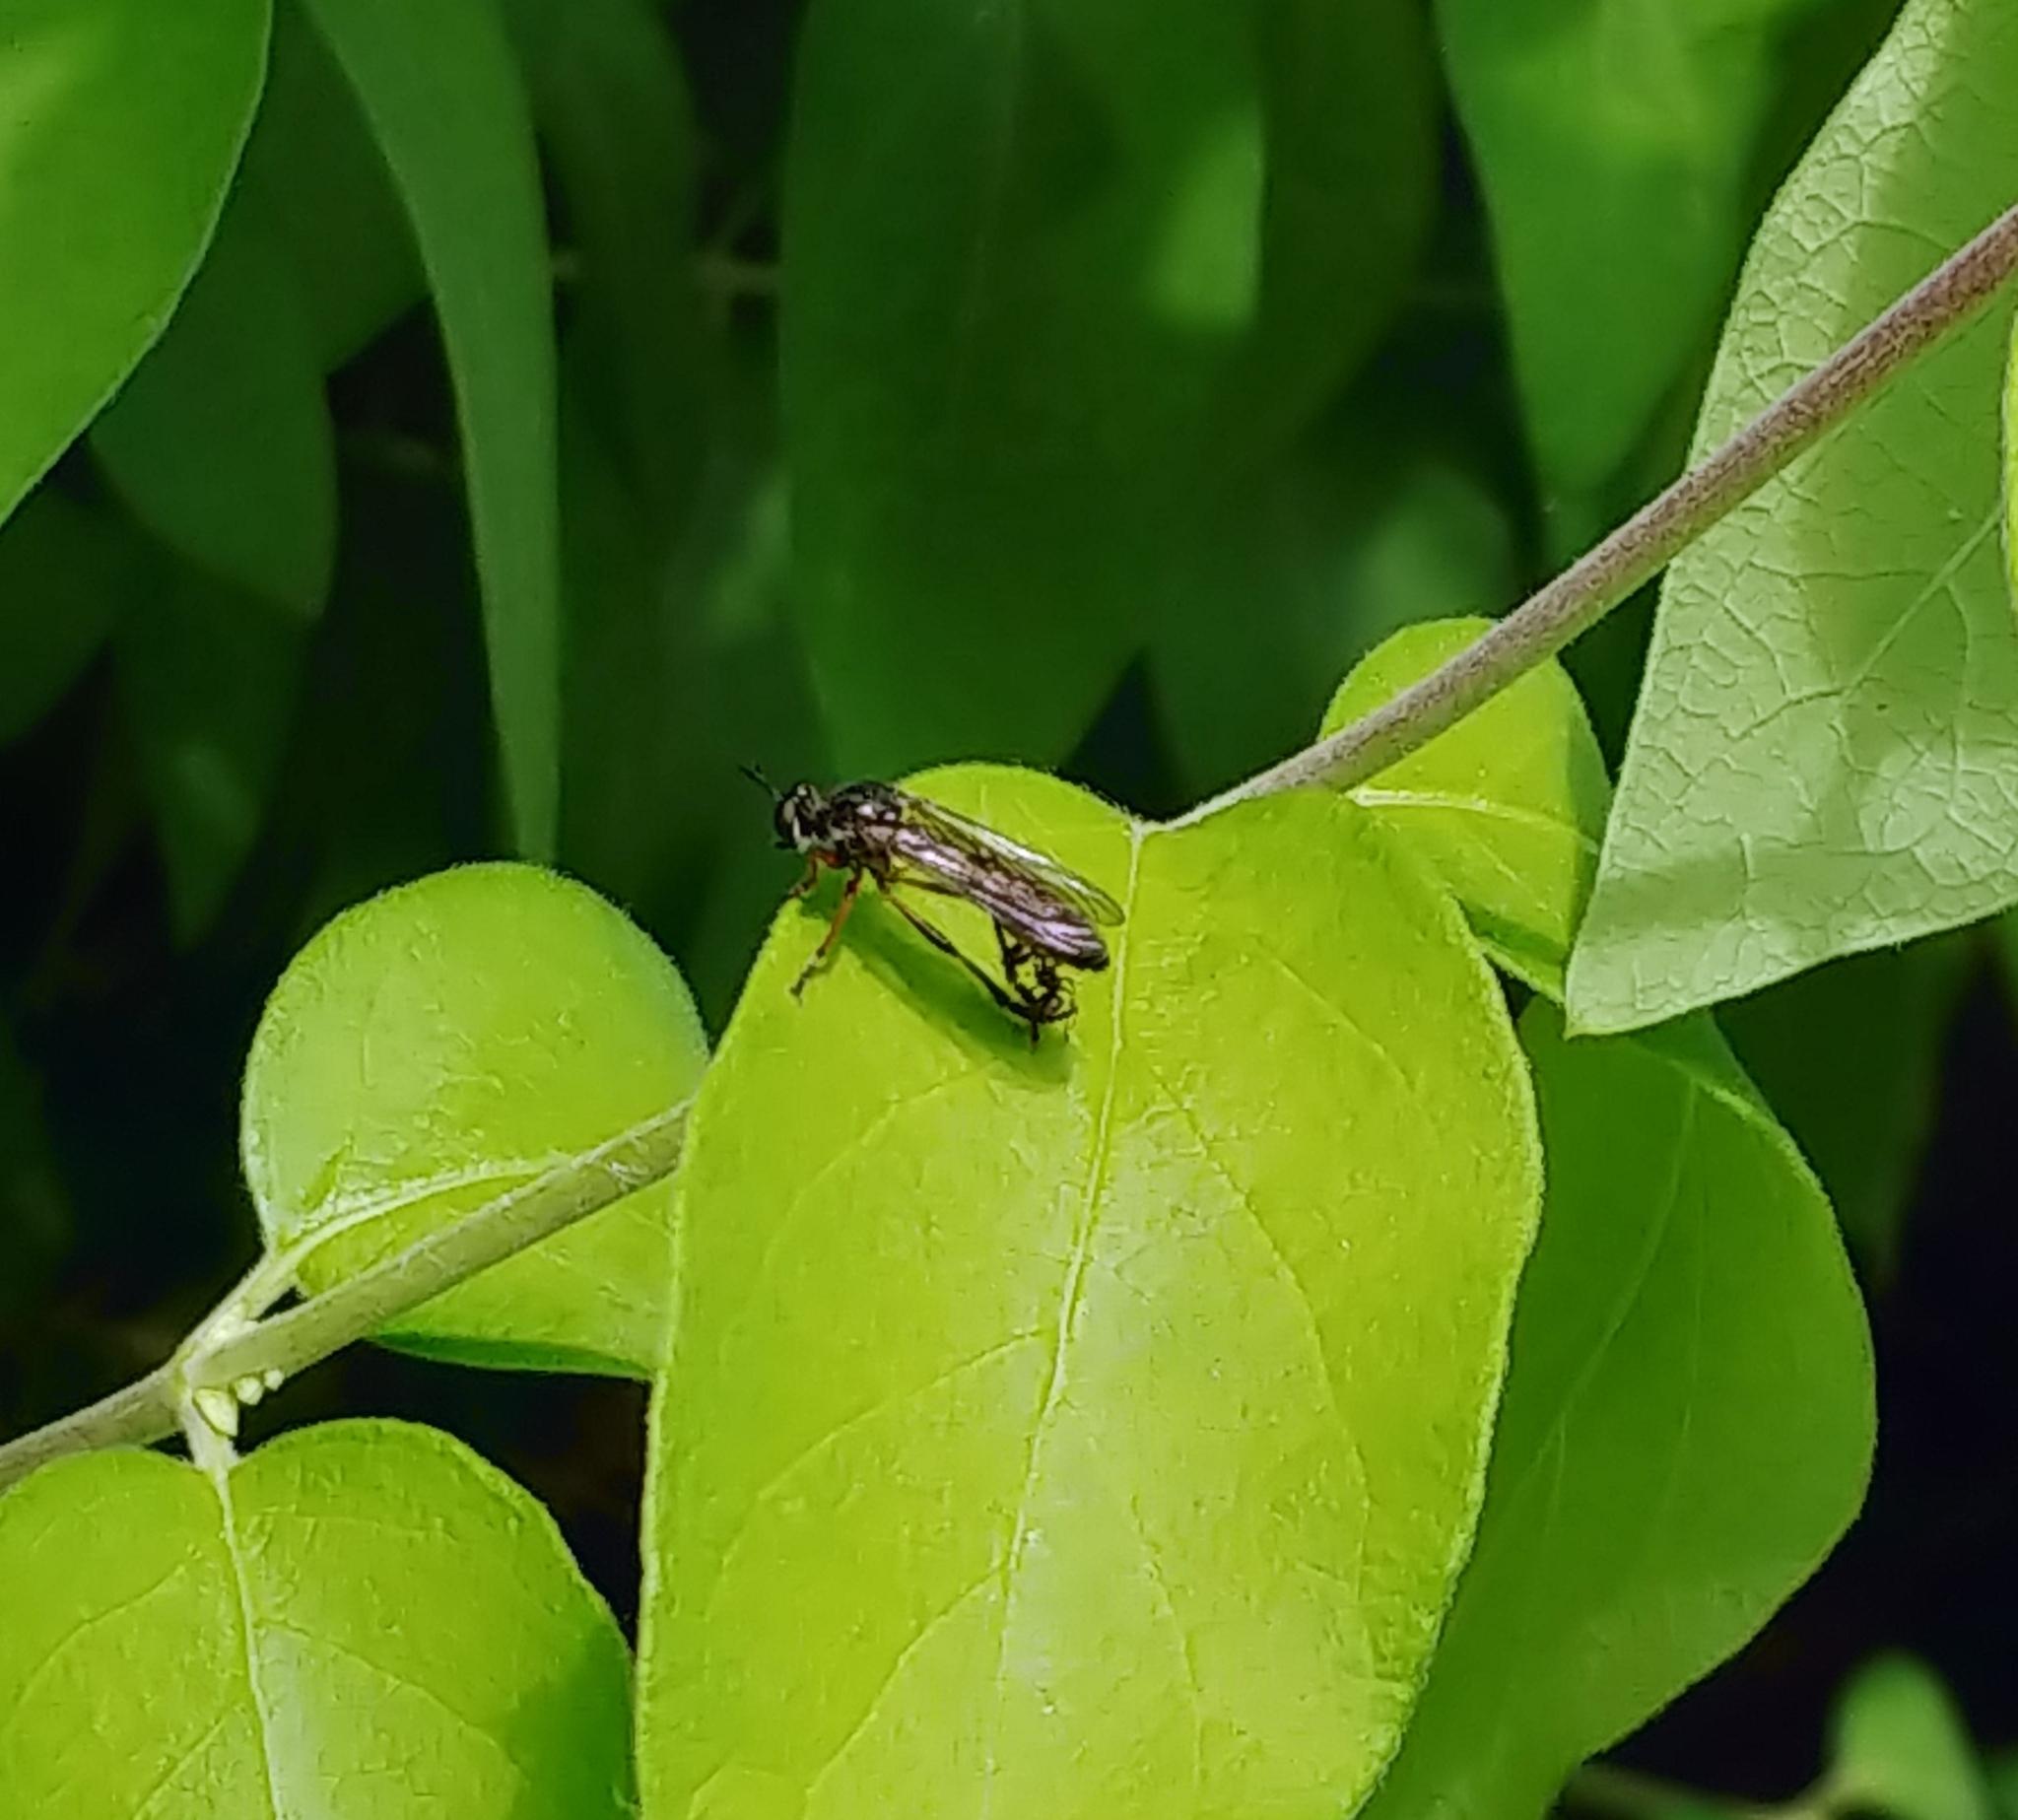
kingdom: Animalia
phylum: Arthropoda
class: Insecta
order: Diptera
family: Asilidae
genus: Dioctria
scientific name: Dioctria hyalipennis
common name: Stripe-legged robberfly
